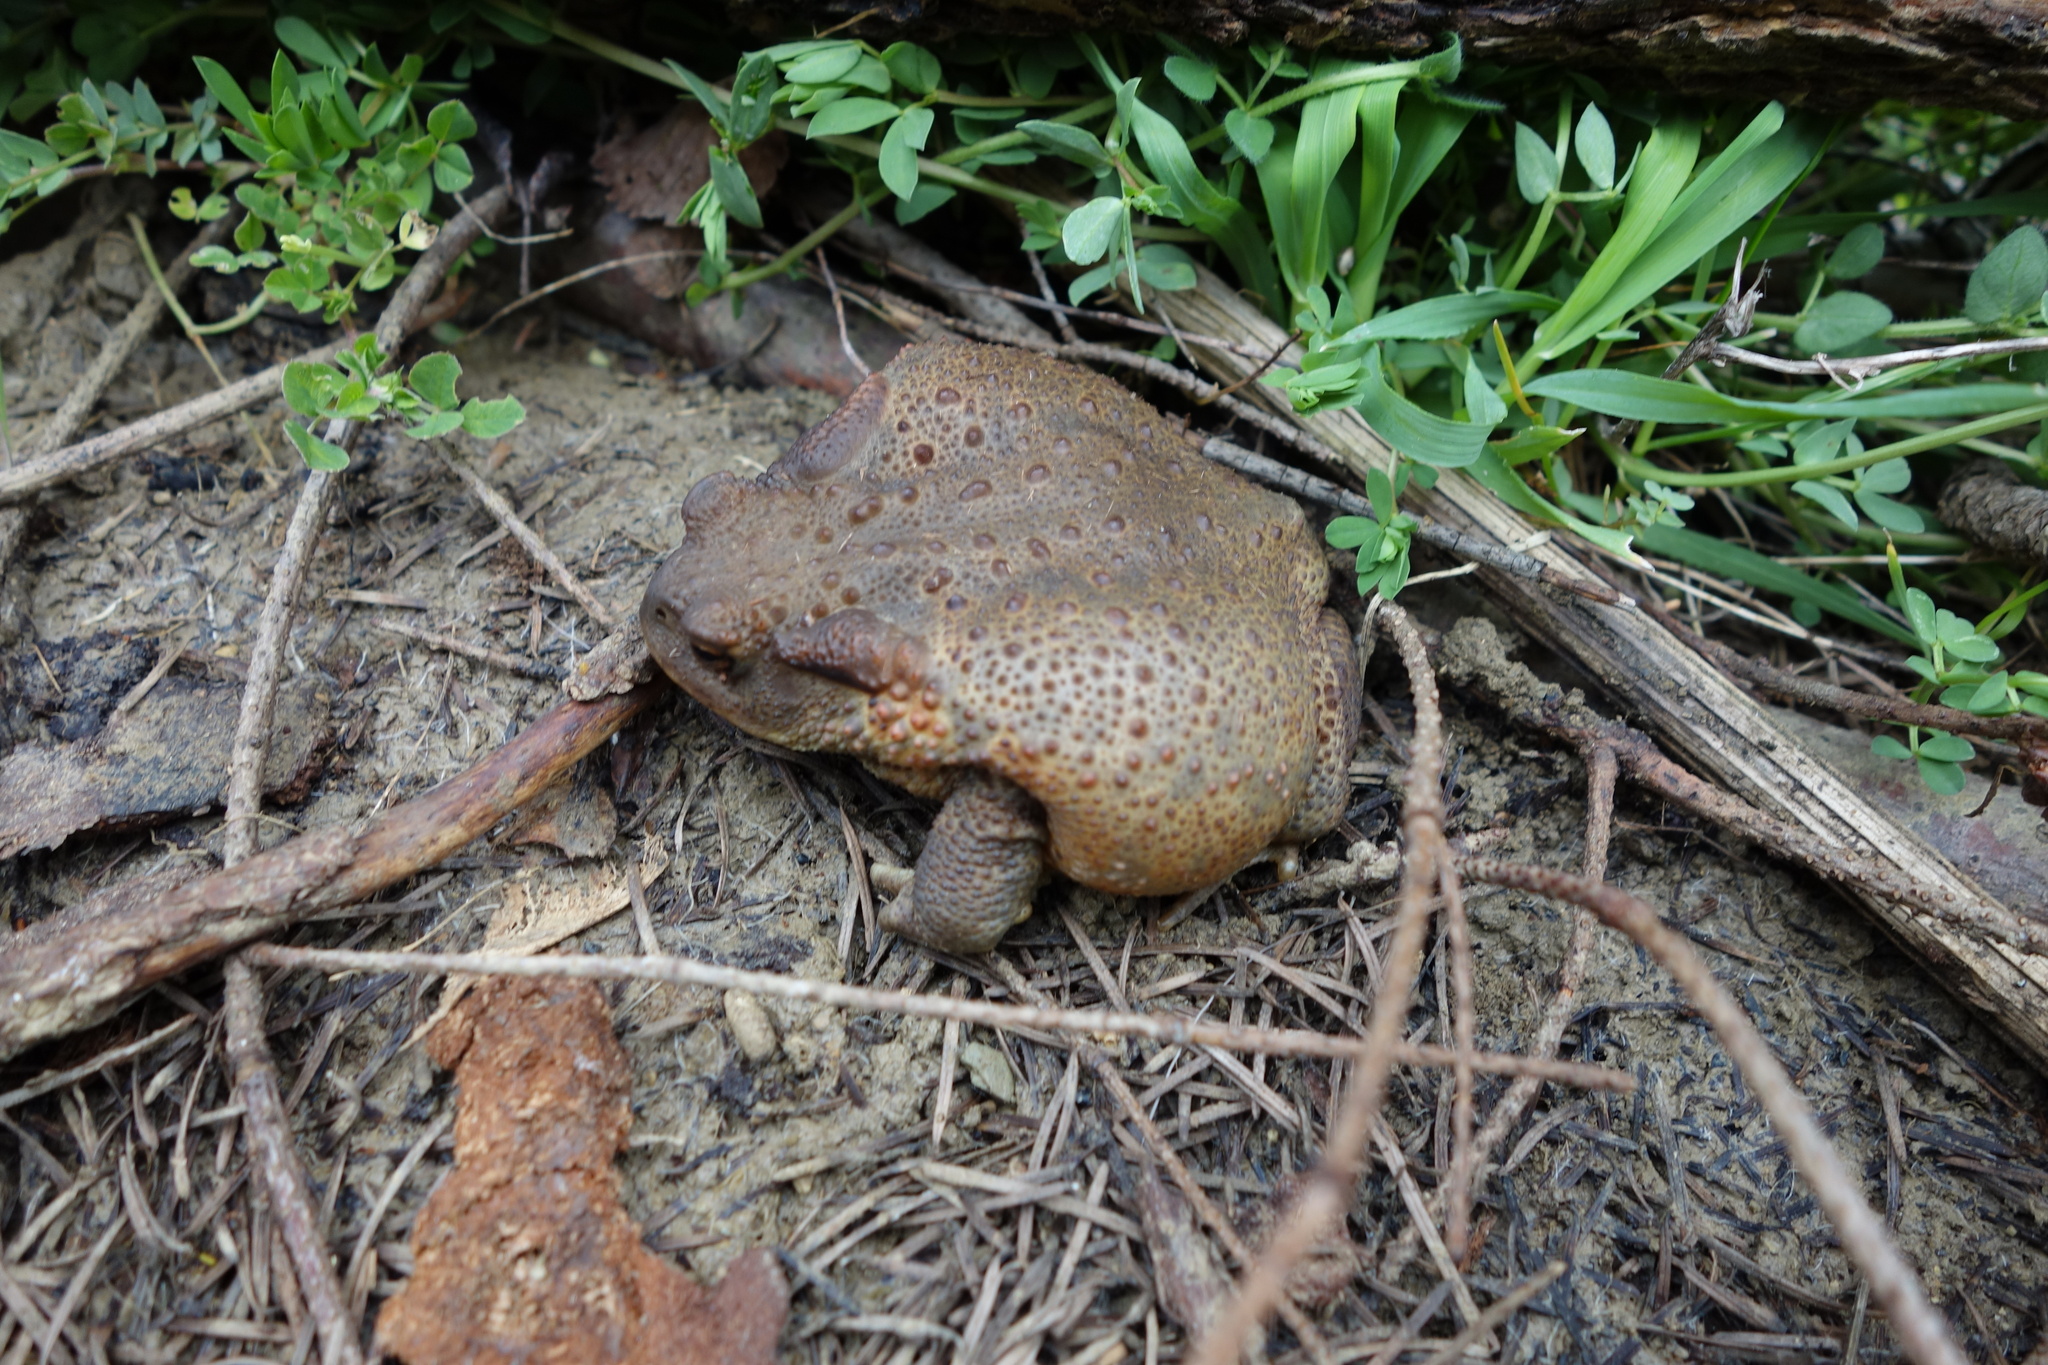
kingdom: Animalia
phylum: Chordata
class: Amphibia
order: Anura
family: Bufonidae
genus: Bufo
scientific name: Bufo bufo
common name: Common toad
